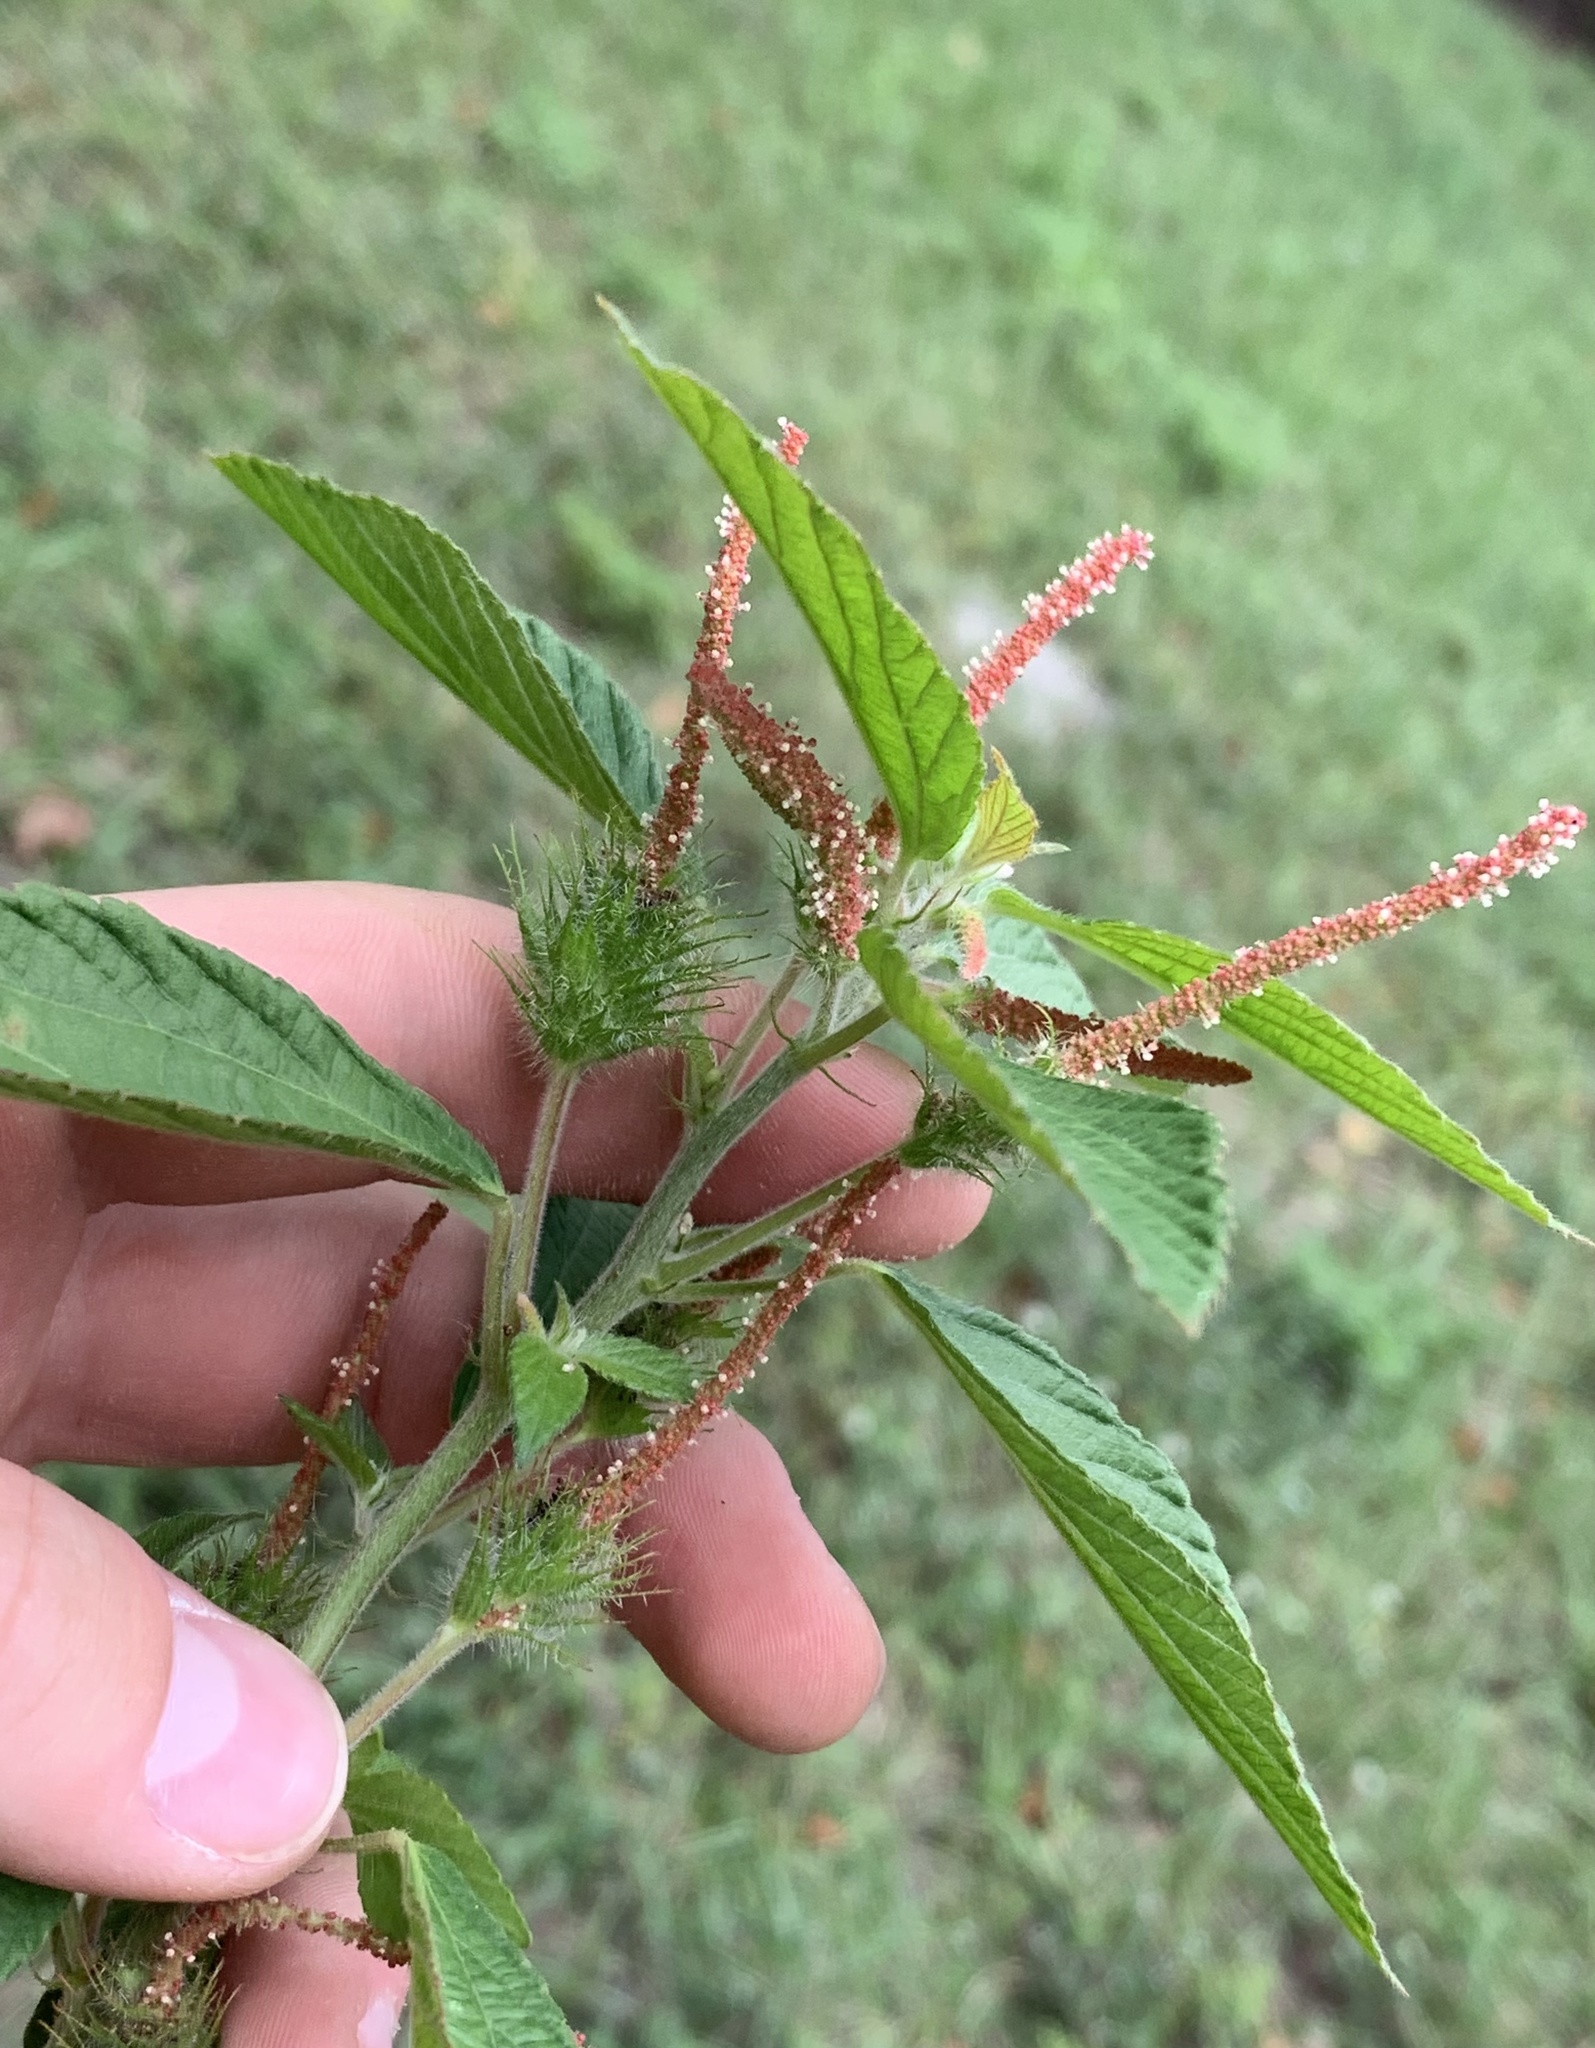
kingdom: Plantae
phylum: Tracheophyta
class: Magnoliopsida
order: Malpighiales
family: Euphorbiaceae
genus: Acalypha
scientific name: Acalypha arvensis
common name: Field copperleaf
